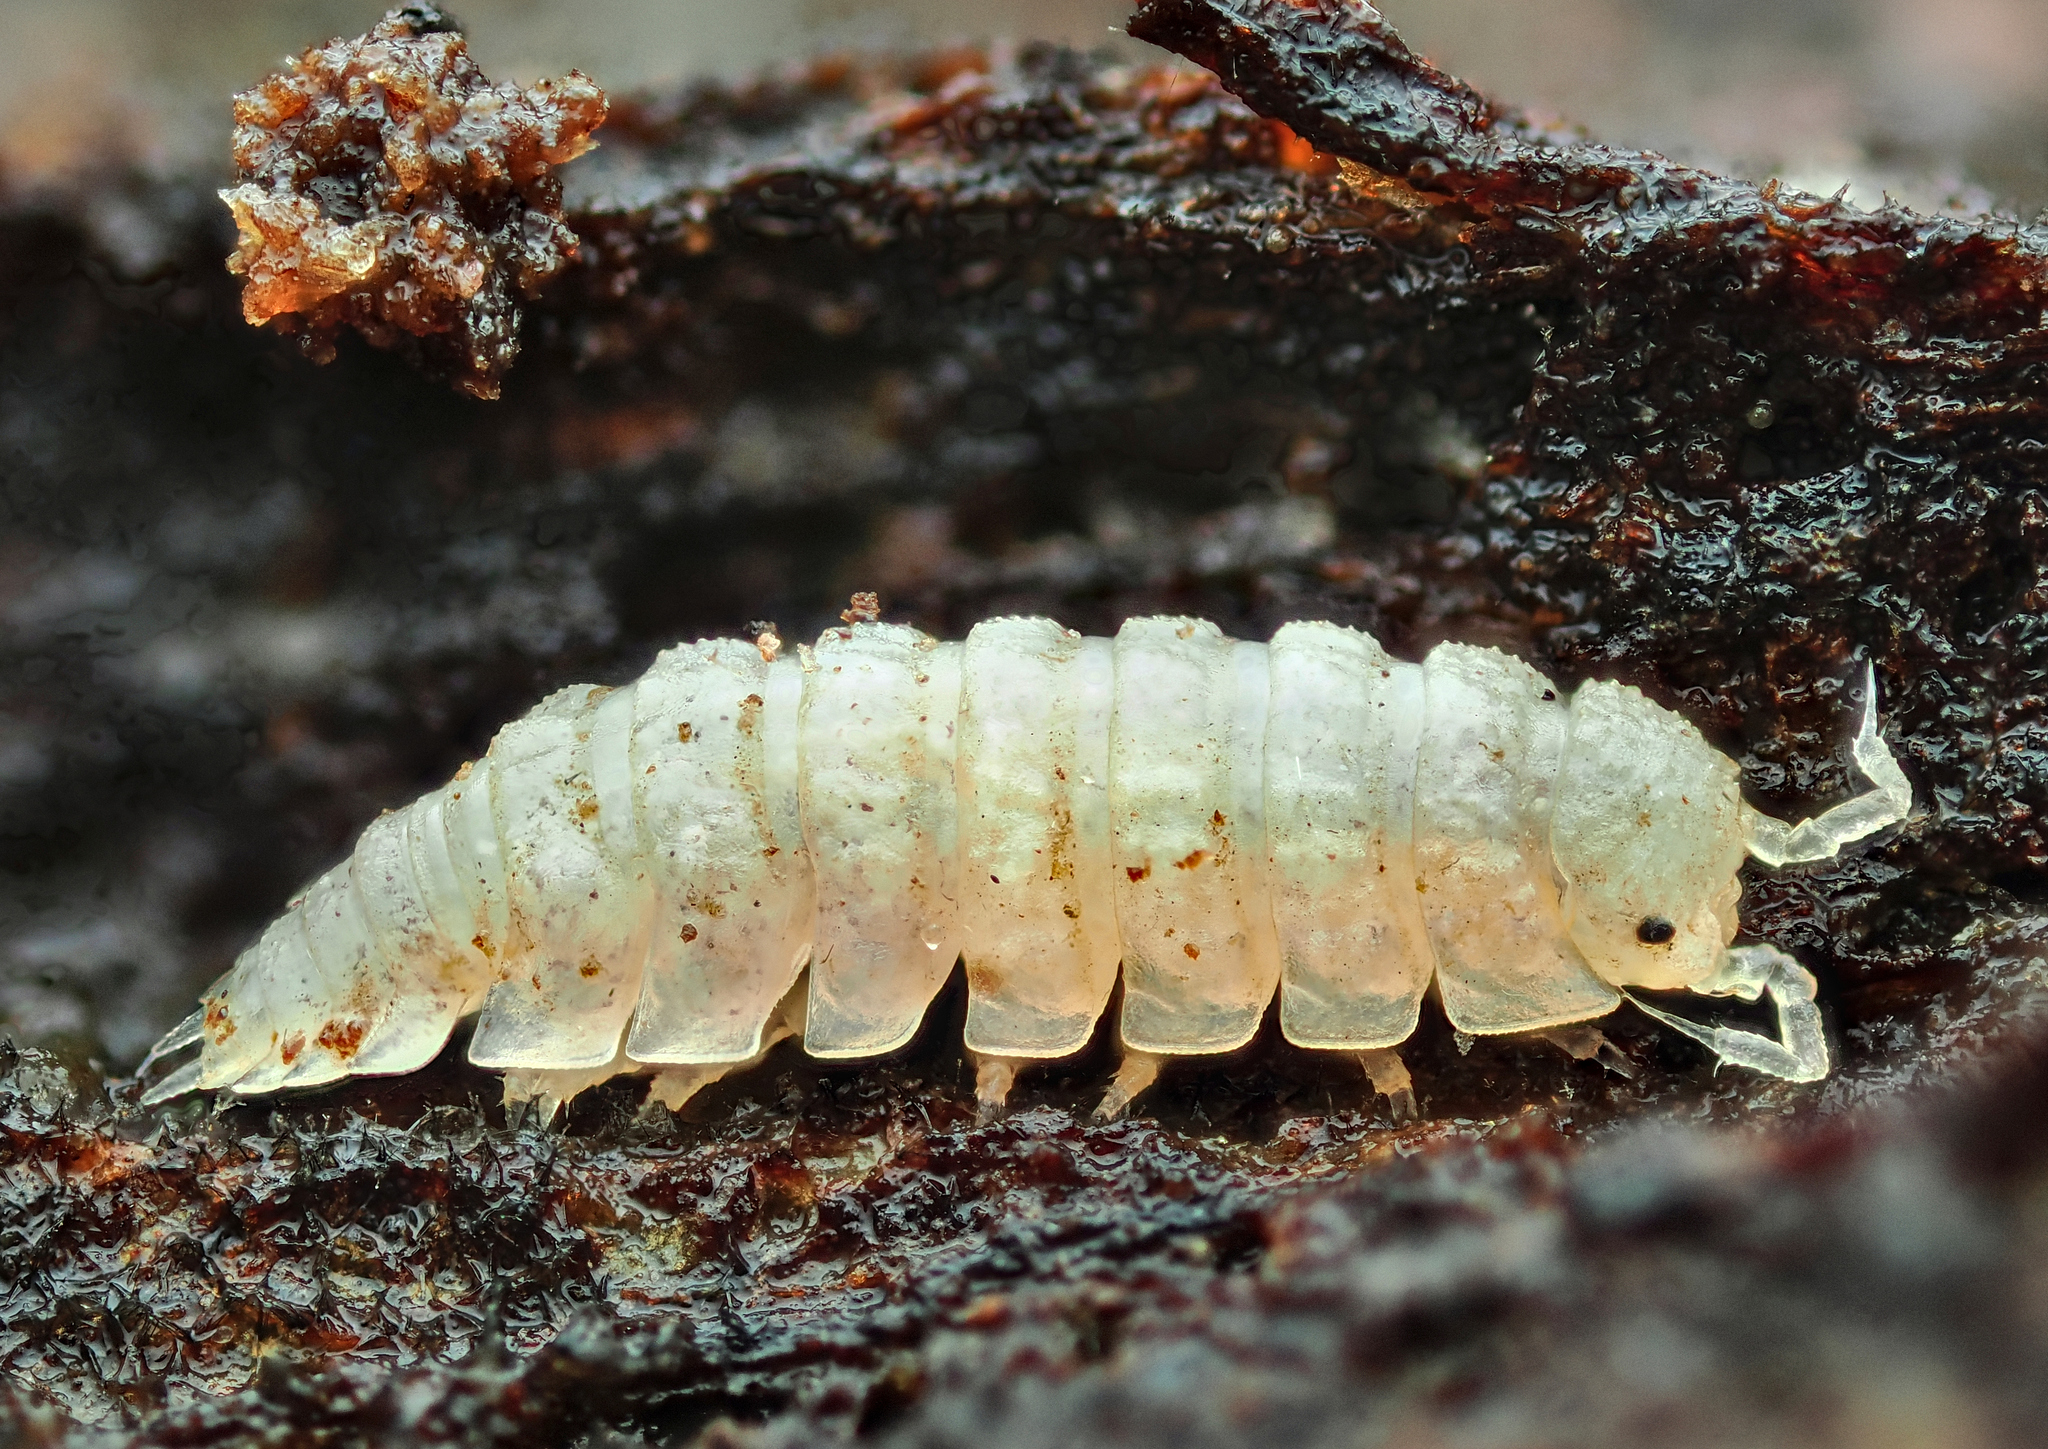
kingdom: Animalia
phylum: Arthropoda
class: Malacostraca
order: Isopoda
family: Trichoniscidae
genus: Haplophthalmus
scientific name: Haplophthalmus danicus
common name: Pillbug
